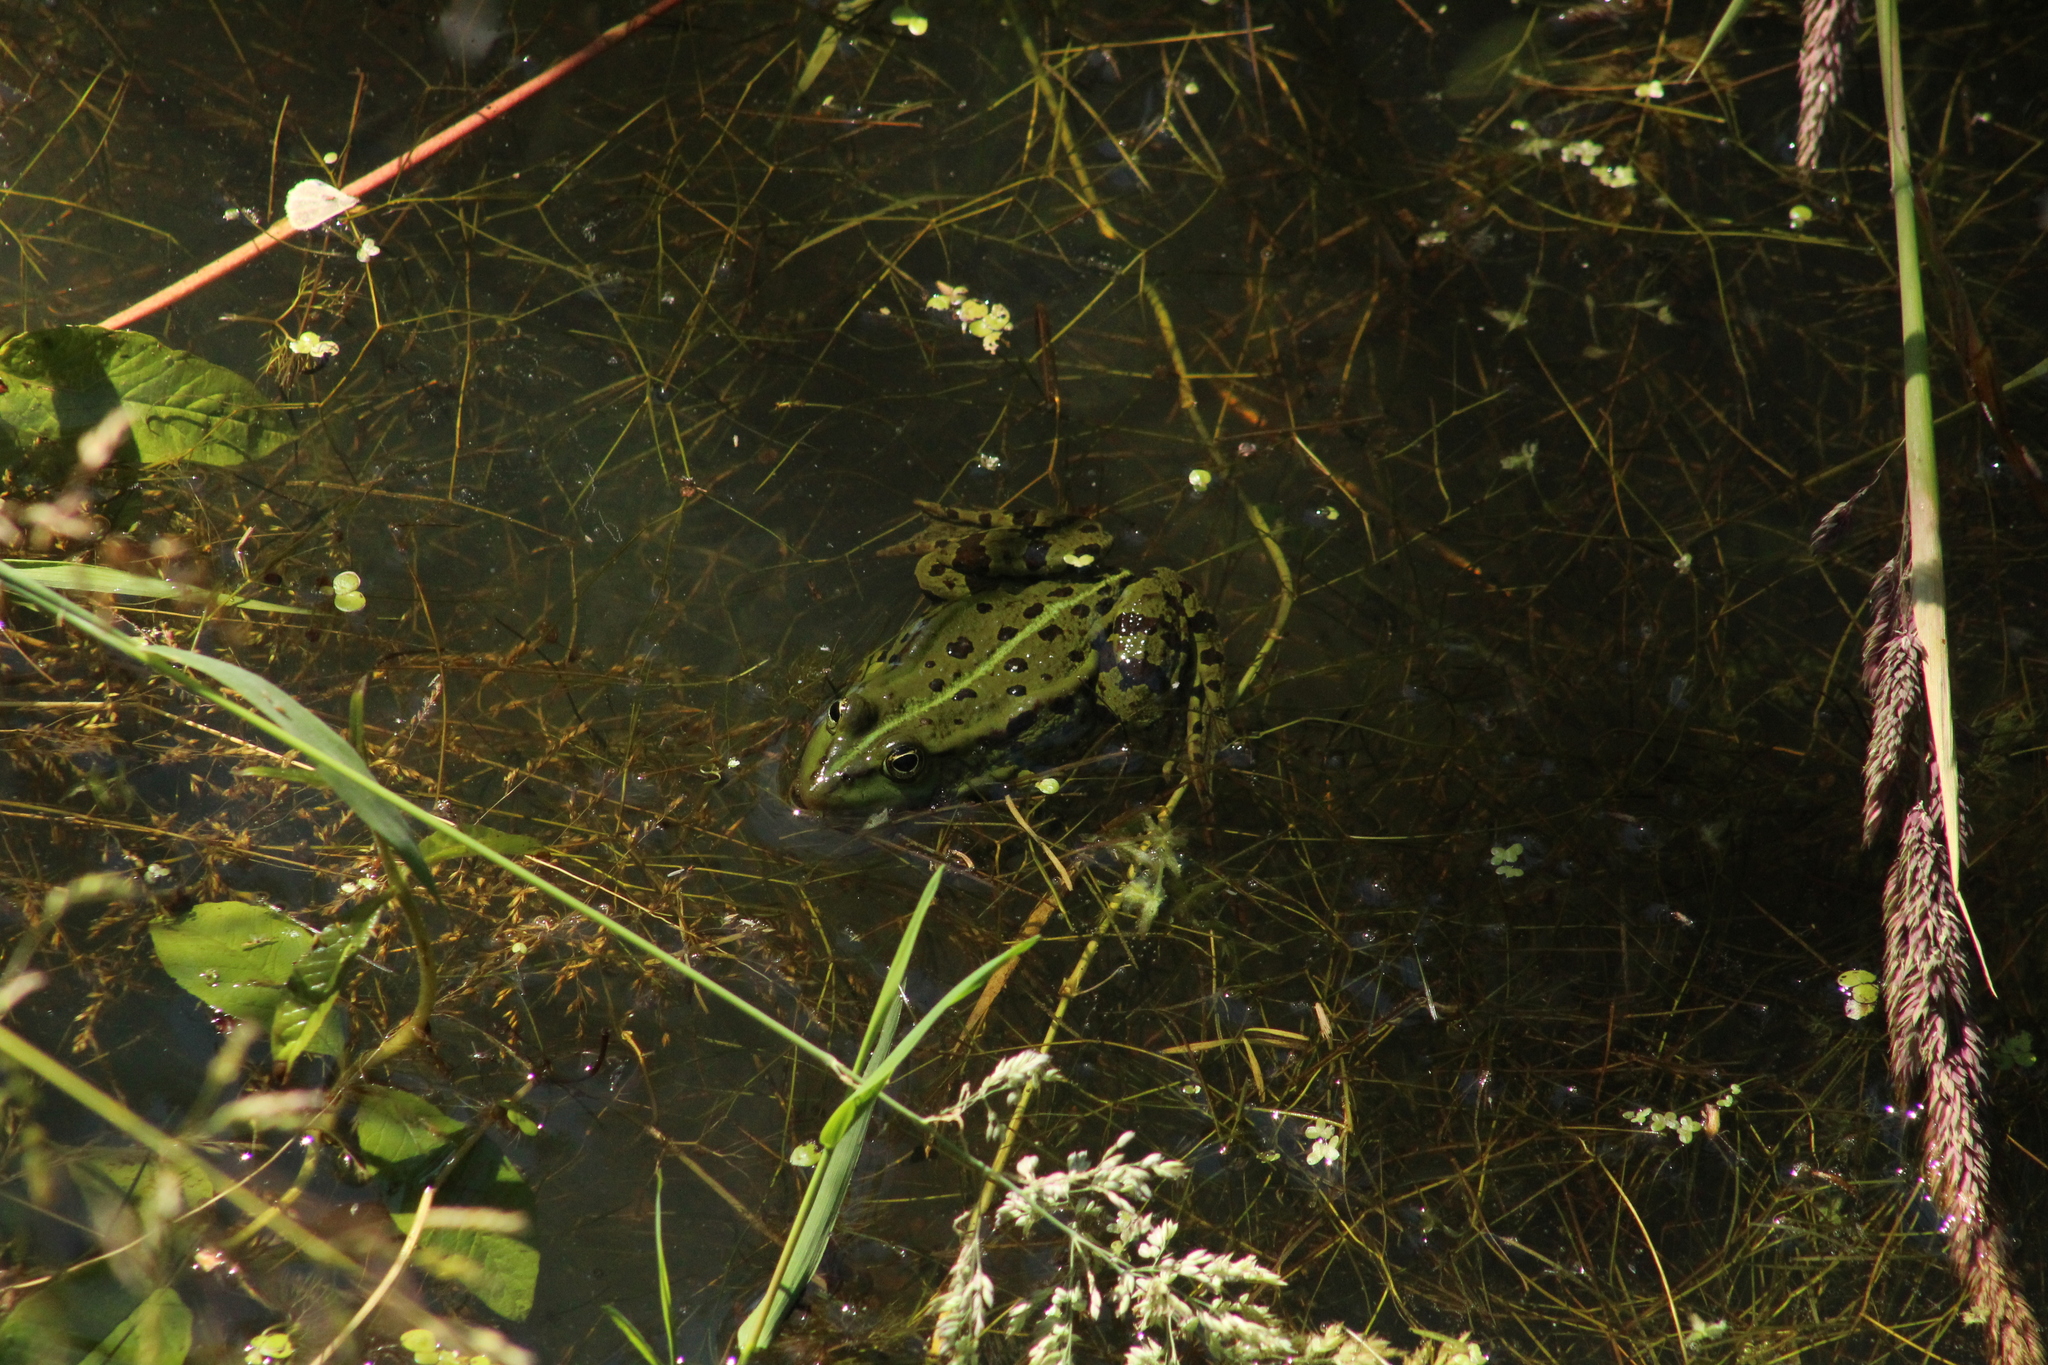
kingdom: Animalia
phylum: Chordata
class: Amphibia
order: Anura
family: Ranidae
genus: Pelophylax
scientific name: Pelophylax
